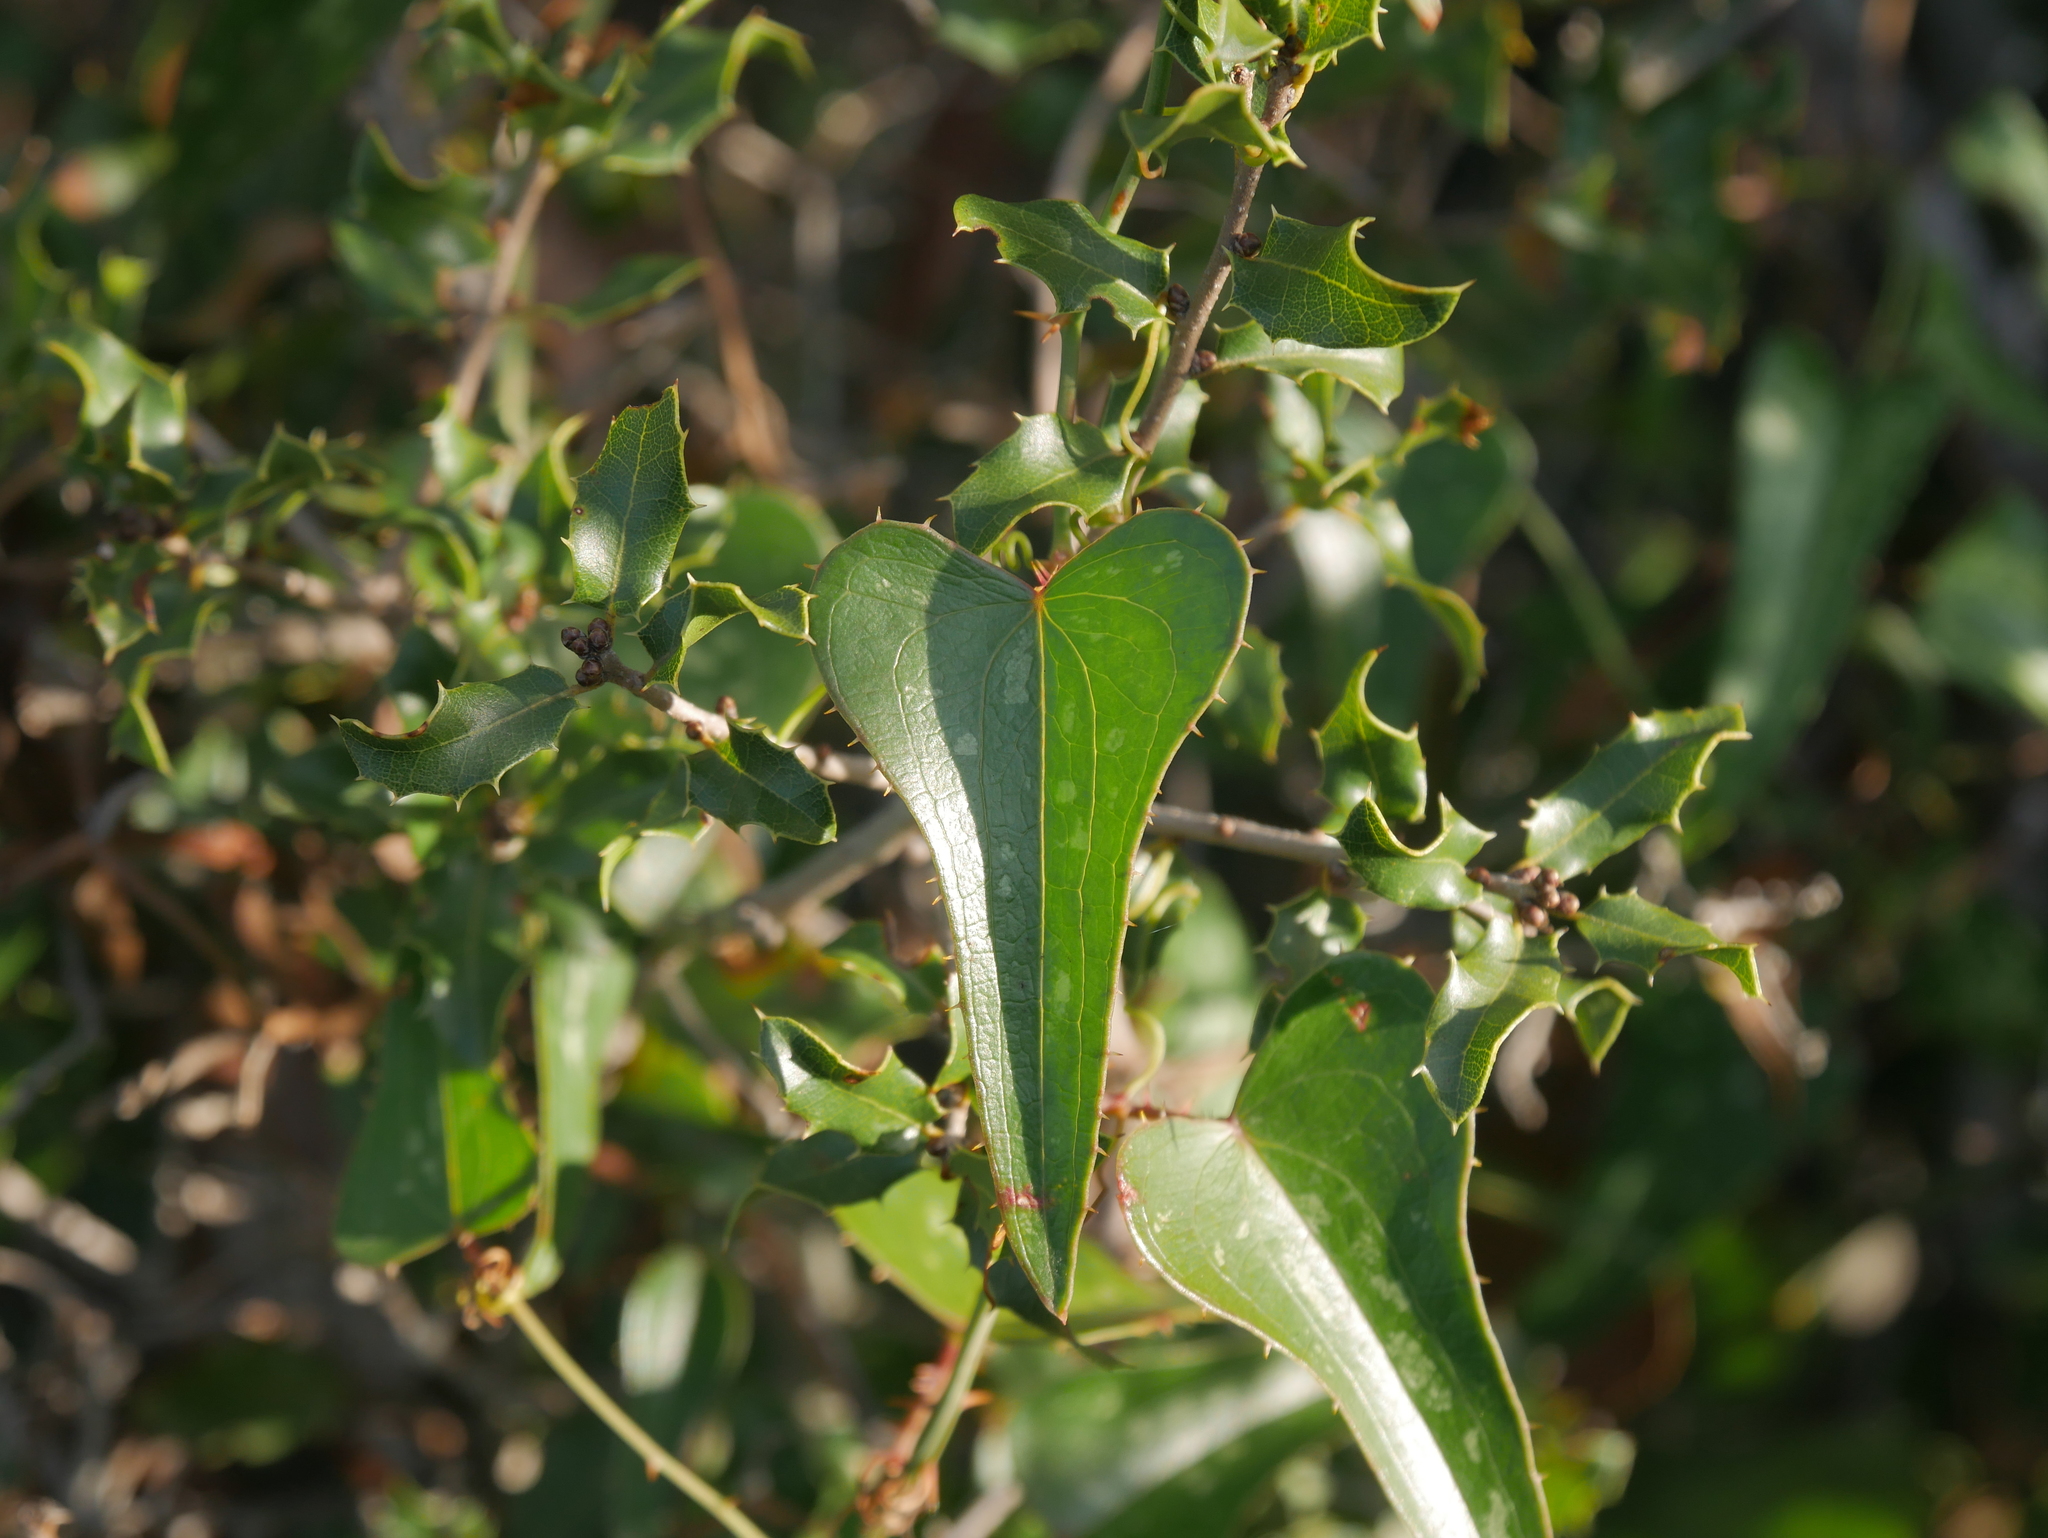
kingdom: Plantae
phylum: Tracheophyta
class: Liliopsida
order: Liliales
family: Smilacaceae
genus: Smilax
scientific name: Smilax aspera
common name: Common smilax
